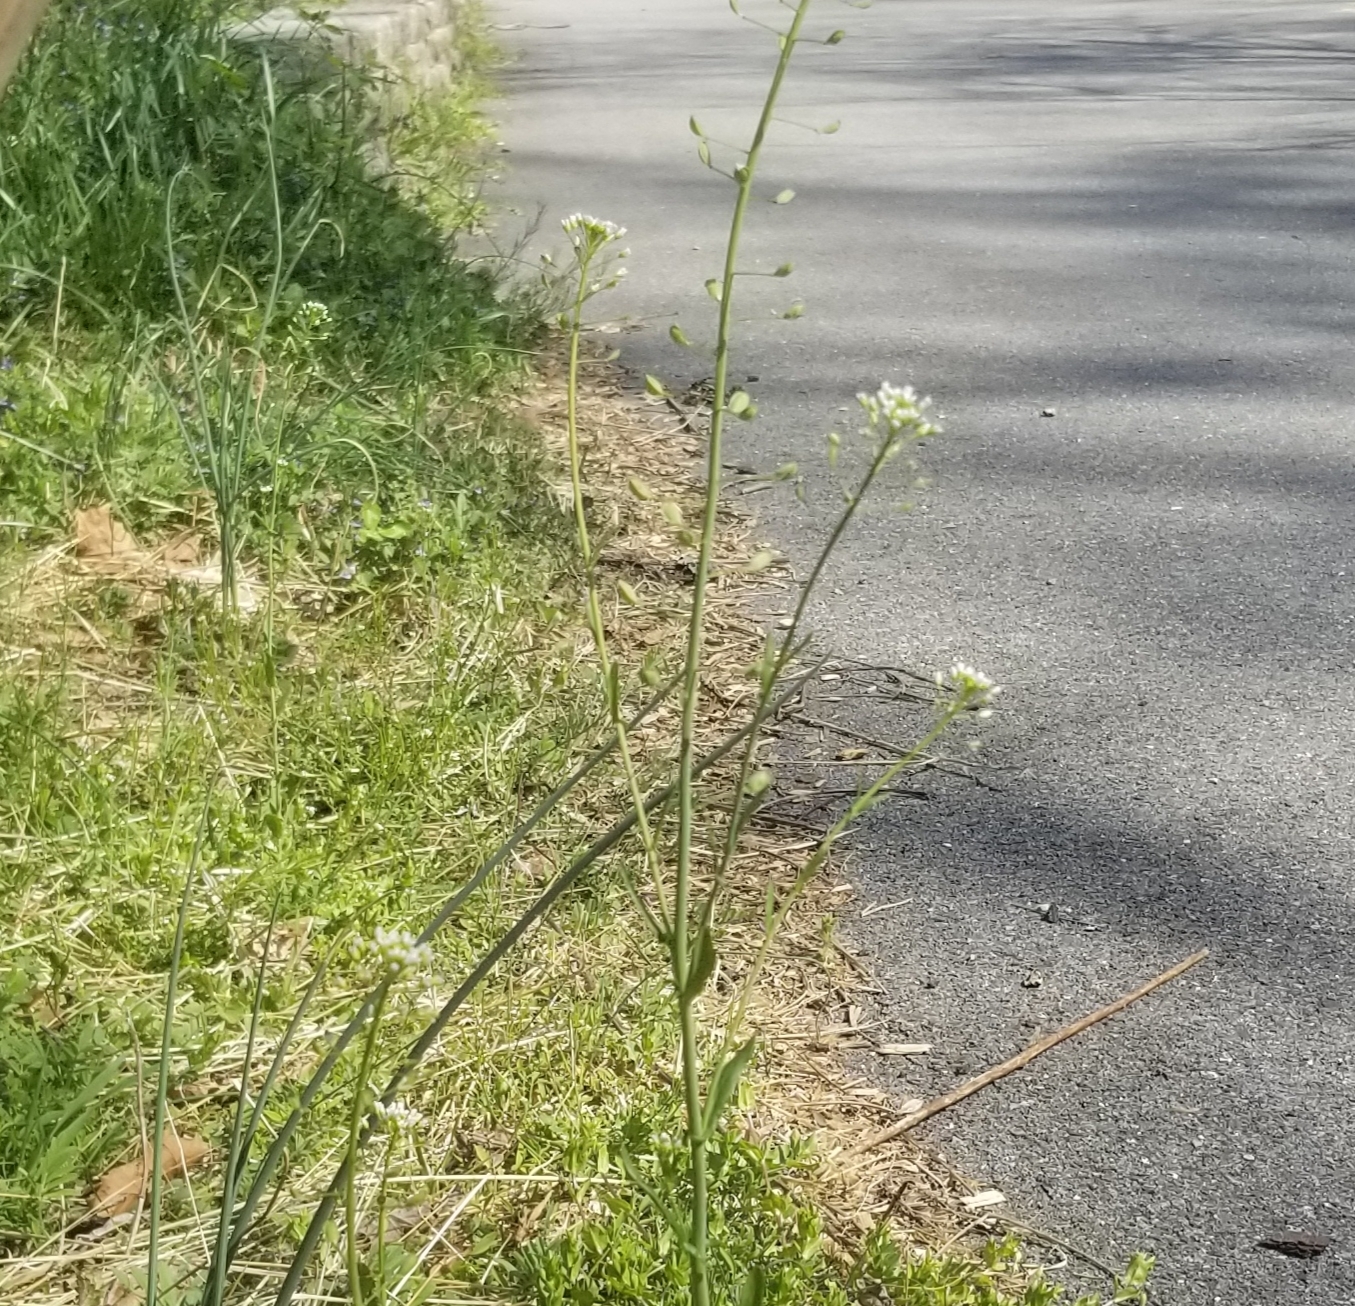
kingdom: Plantae
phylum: Tracheophyta
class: Magnoliopsida
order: Brassicales
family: Brassicaceae
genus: Mummenhoffia
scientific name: Mummenhoffia alliacea
